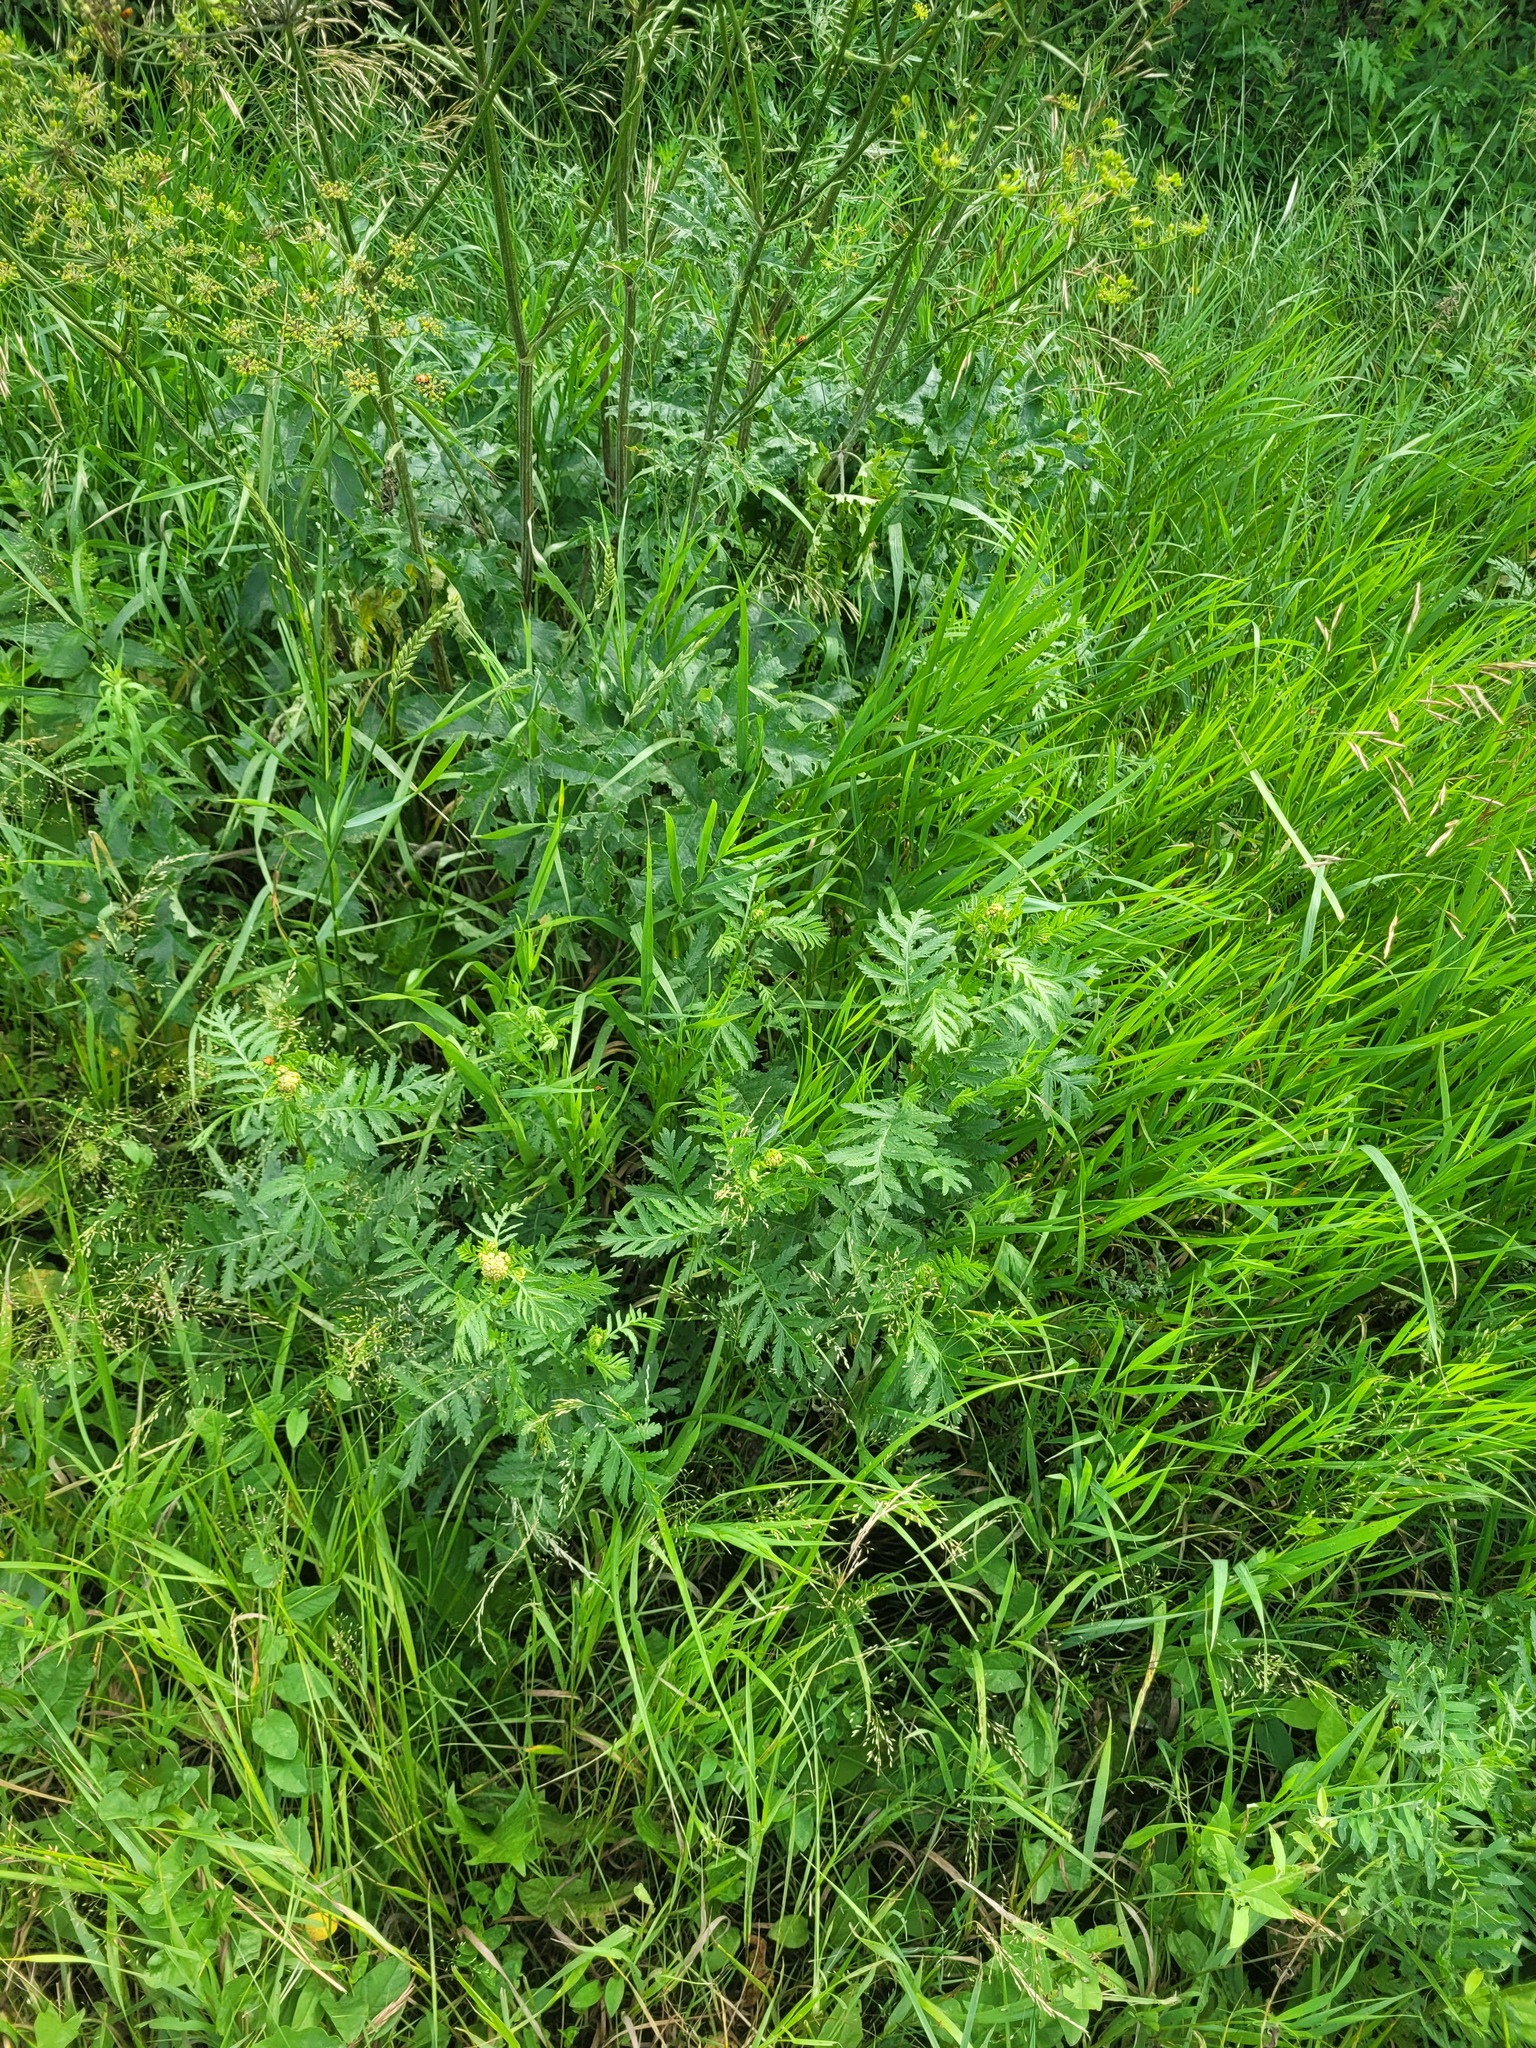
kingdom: Plantae
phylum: Tracheophyta
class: Magnoliopsida
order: Asterales
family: Asteraceae
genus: Tanacetum
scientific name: Tanacetum vulgare
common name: Common tansy
